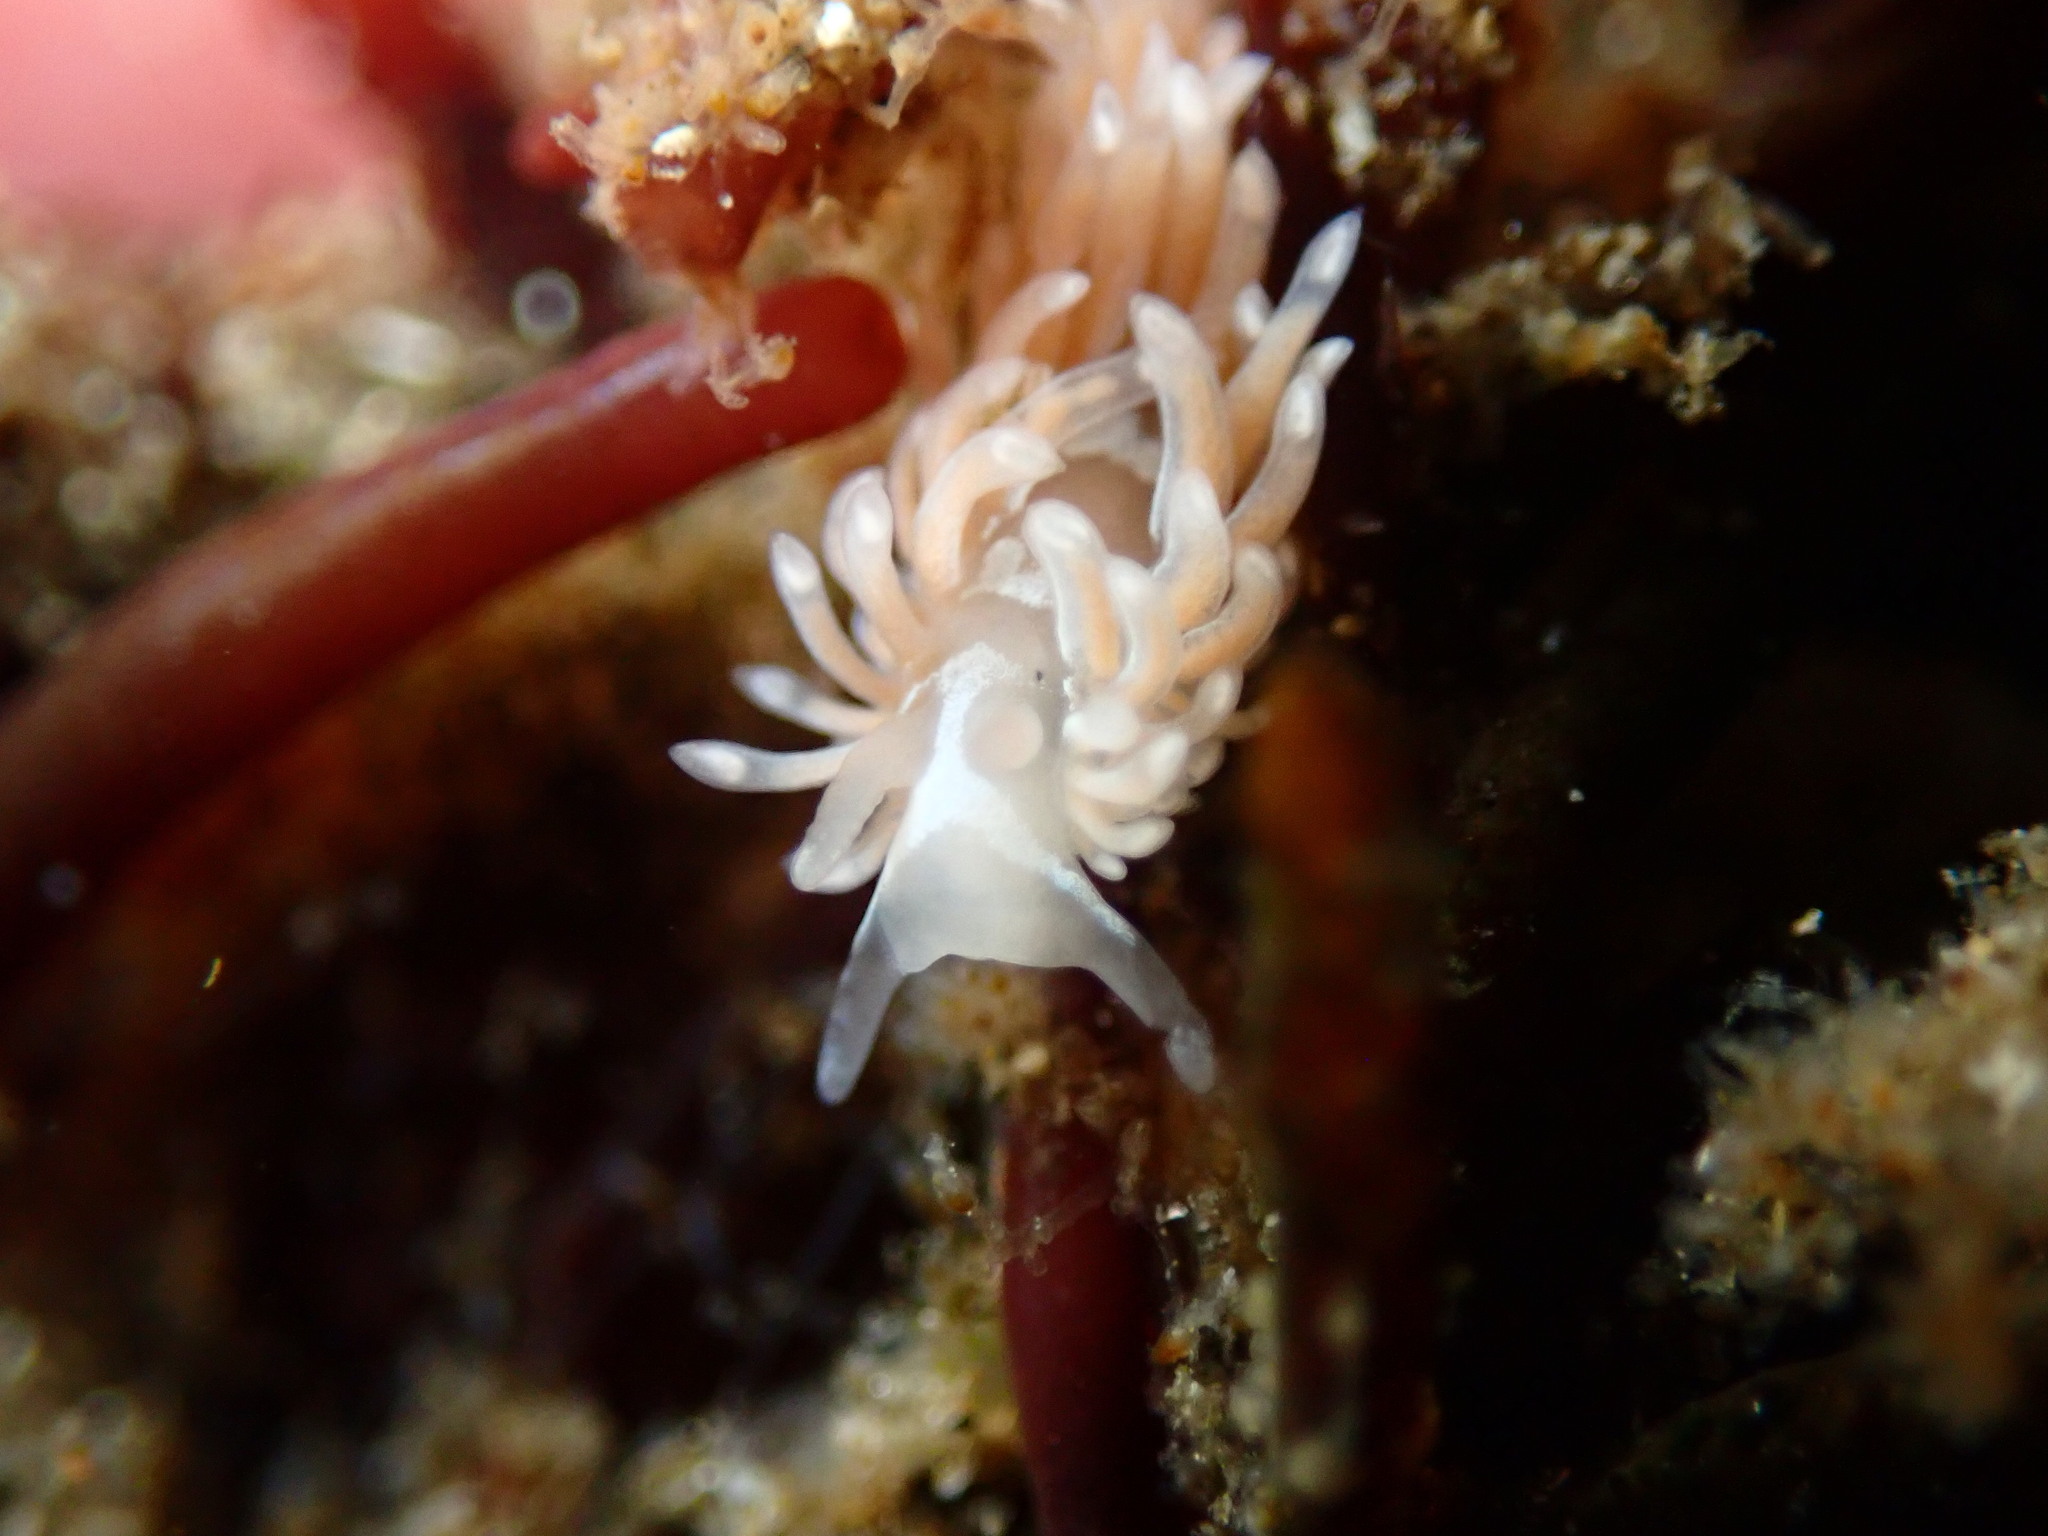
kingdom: Animalia
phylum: Mollusca
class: Gastropoda
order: Nudibranchia
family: Aeolidiidae
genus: Aeolidia
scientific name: Aeolidia loui
